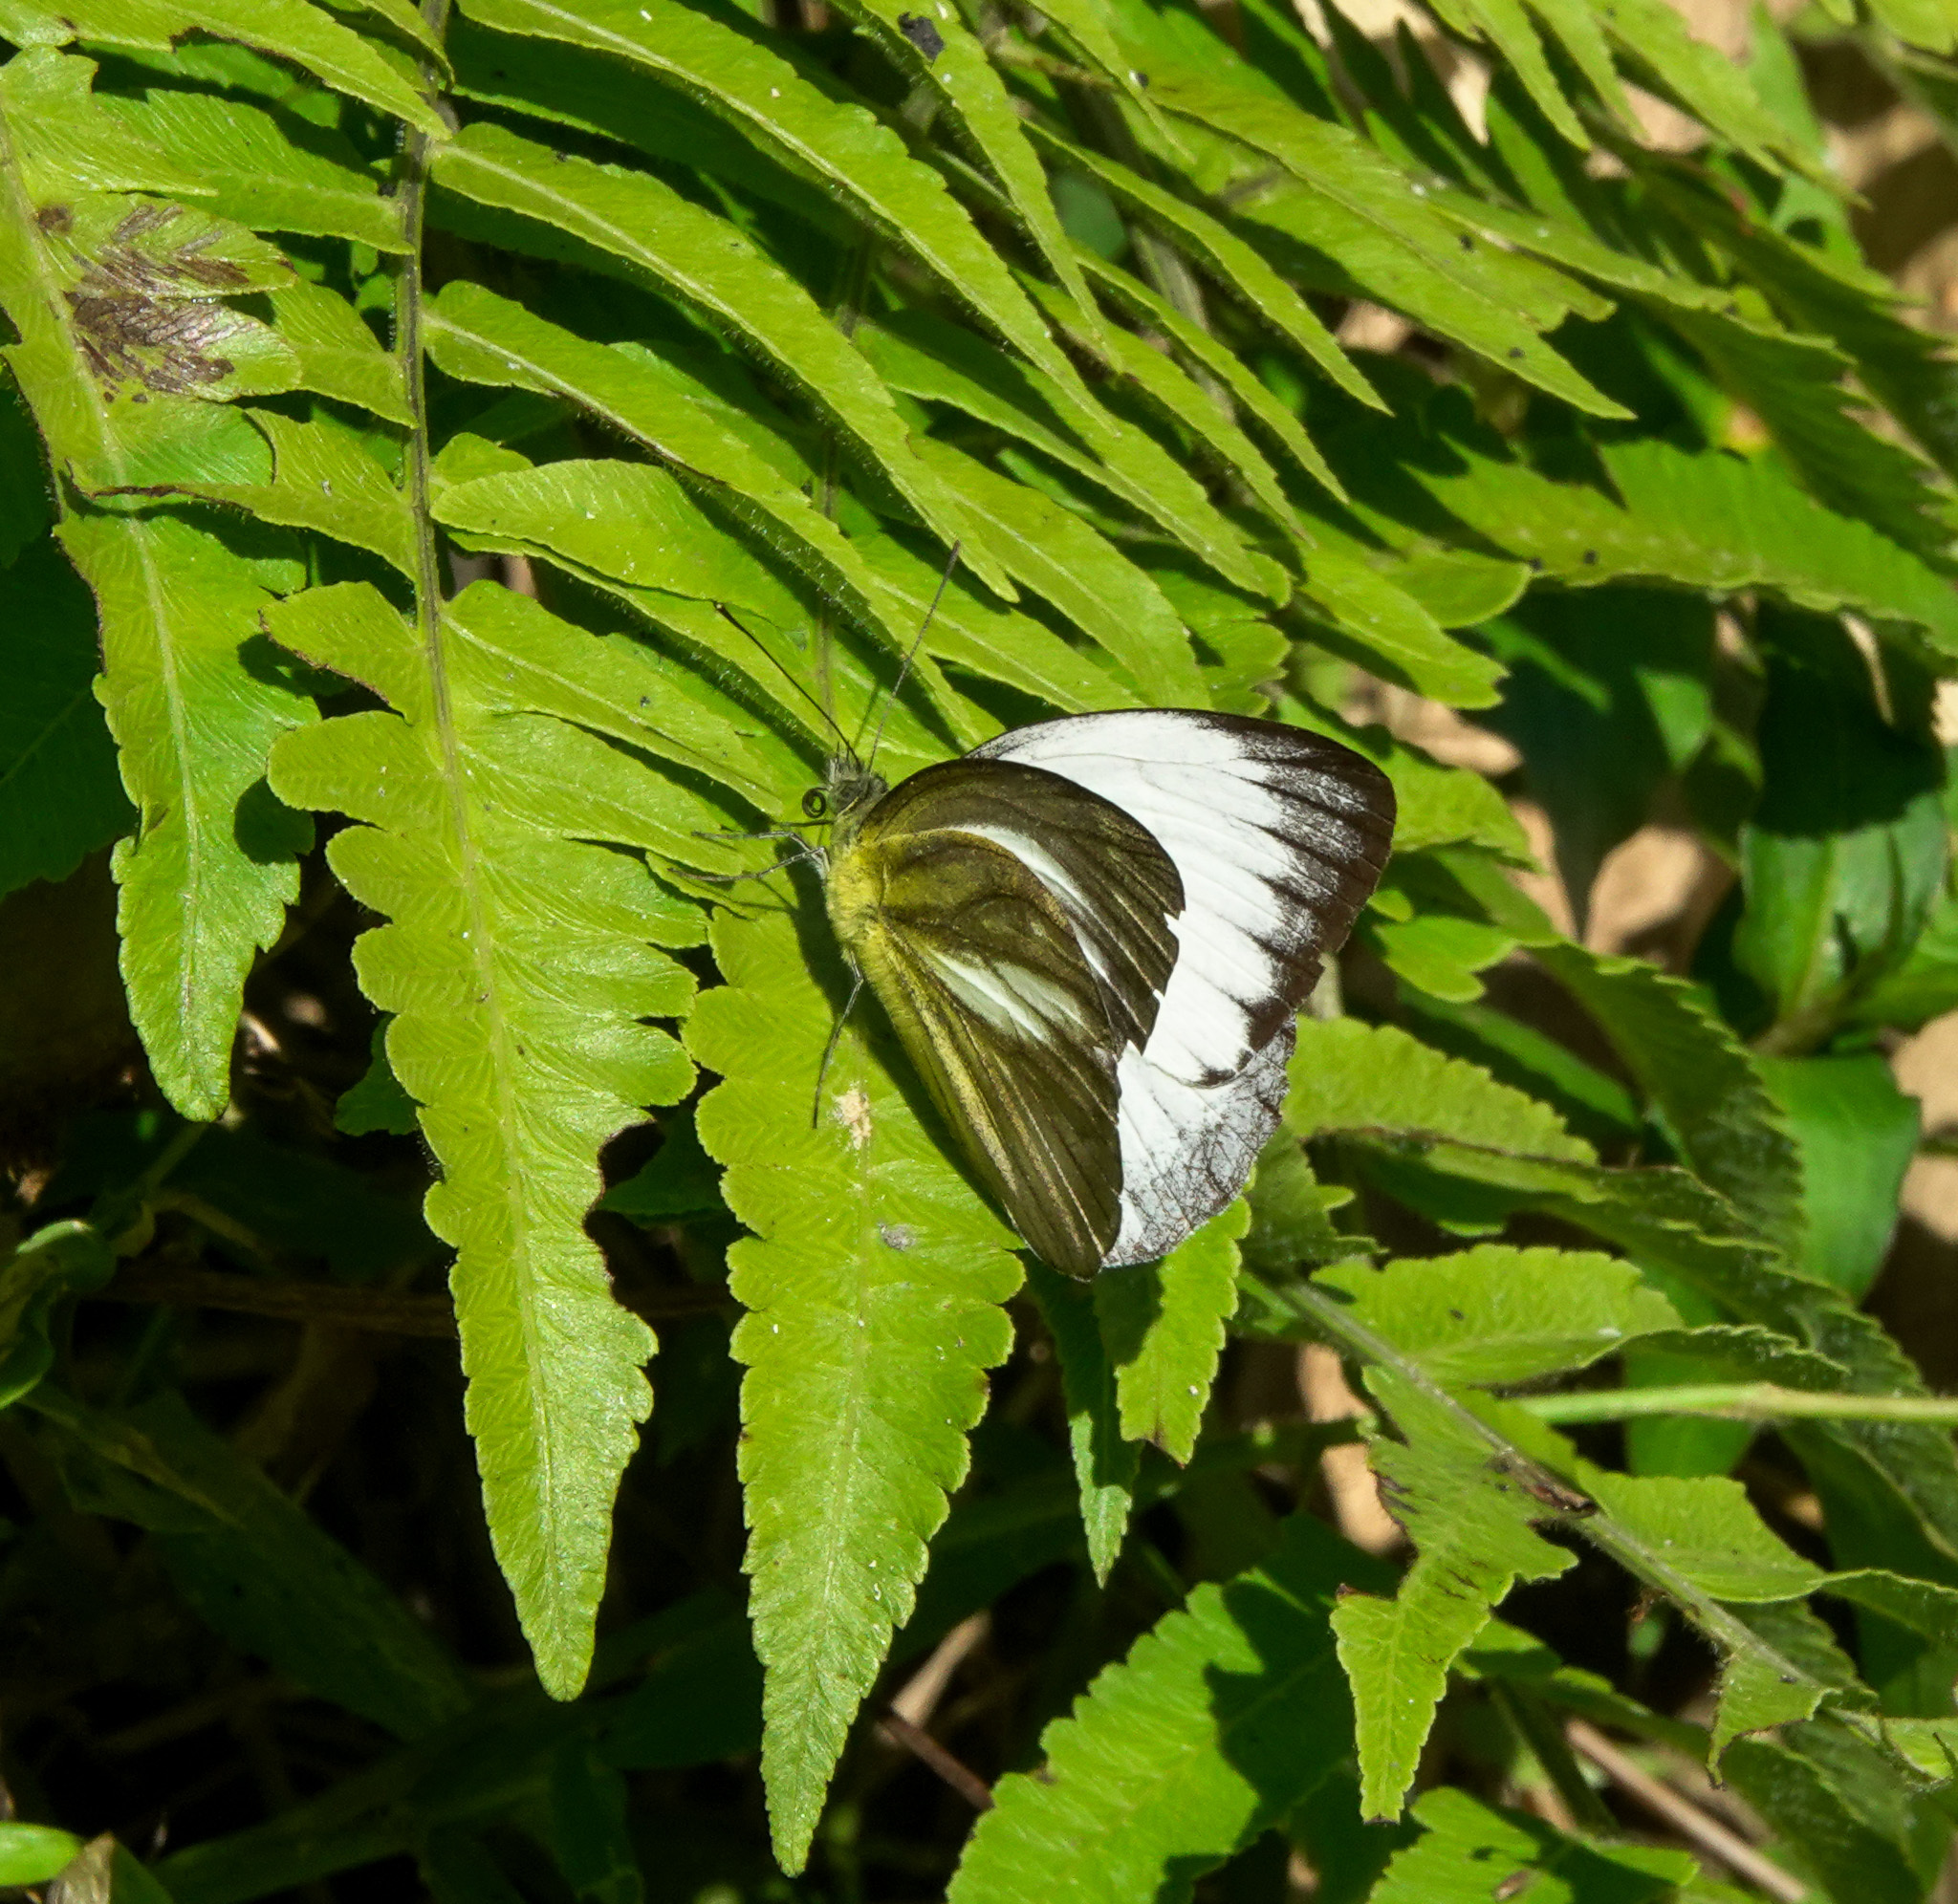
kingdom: Animalia
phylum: Arthropoda
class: Insecta
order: Lepidoptera
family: Pieridae
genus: Cepora
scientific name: Cepora nadina
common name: Lesser gull
